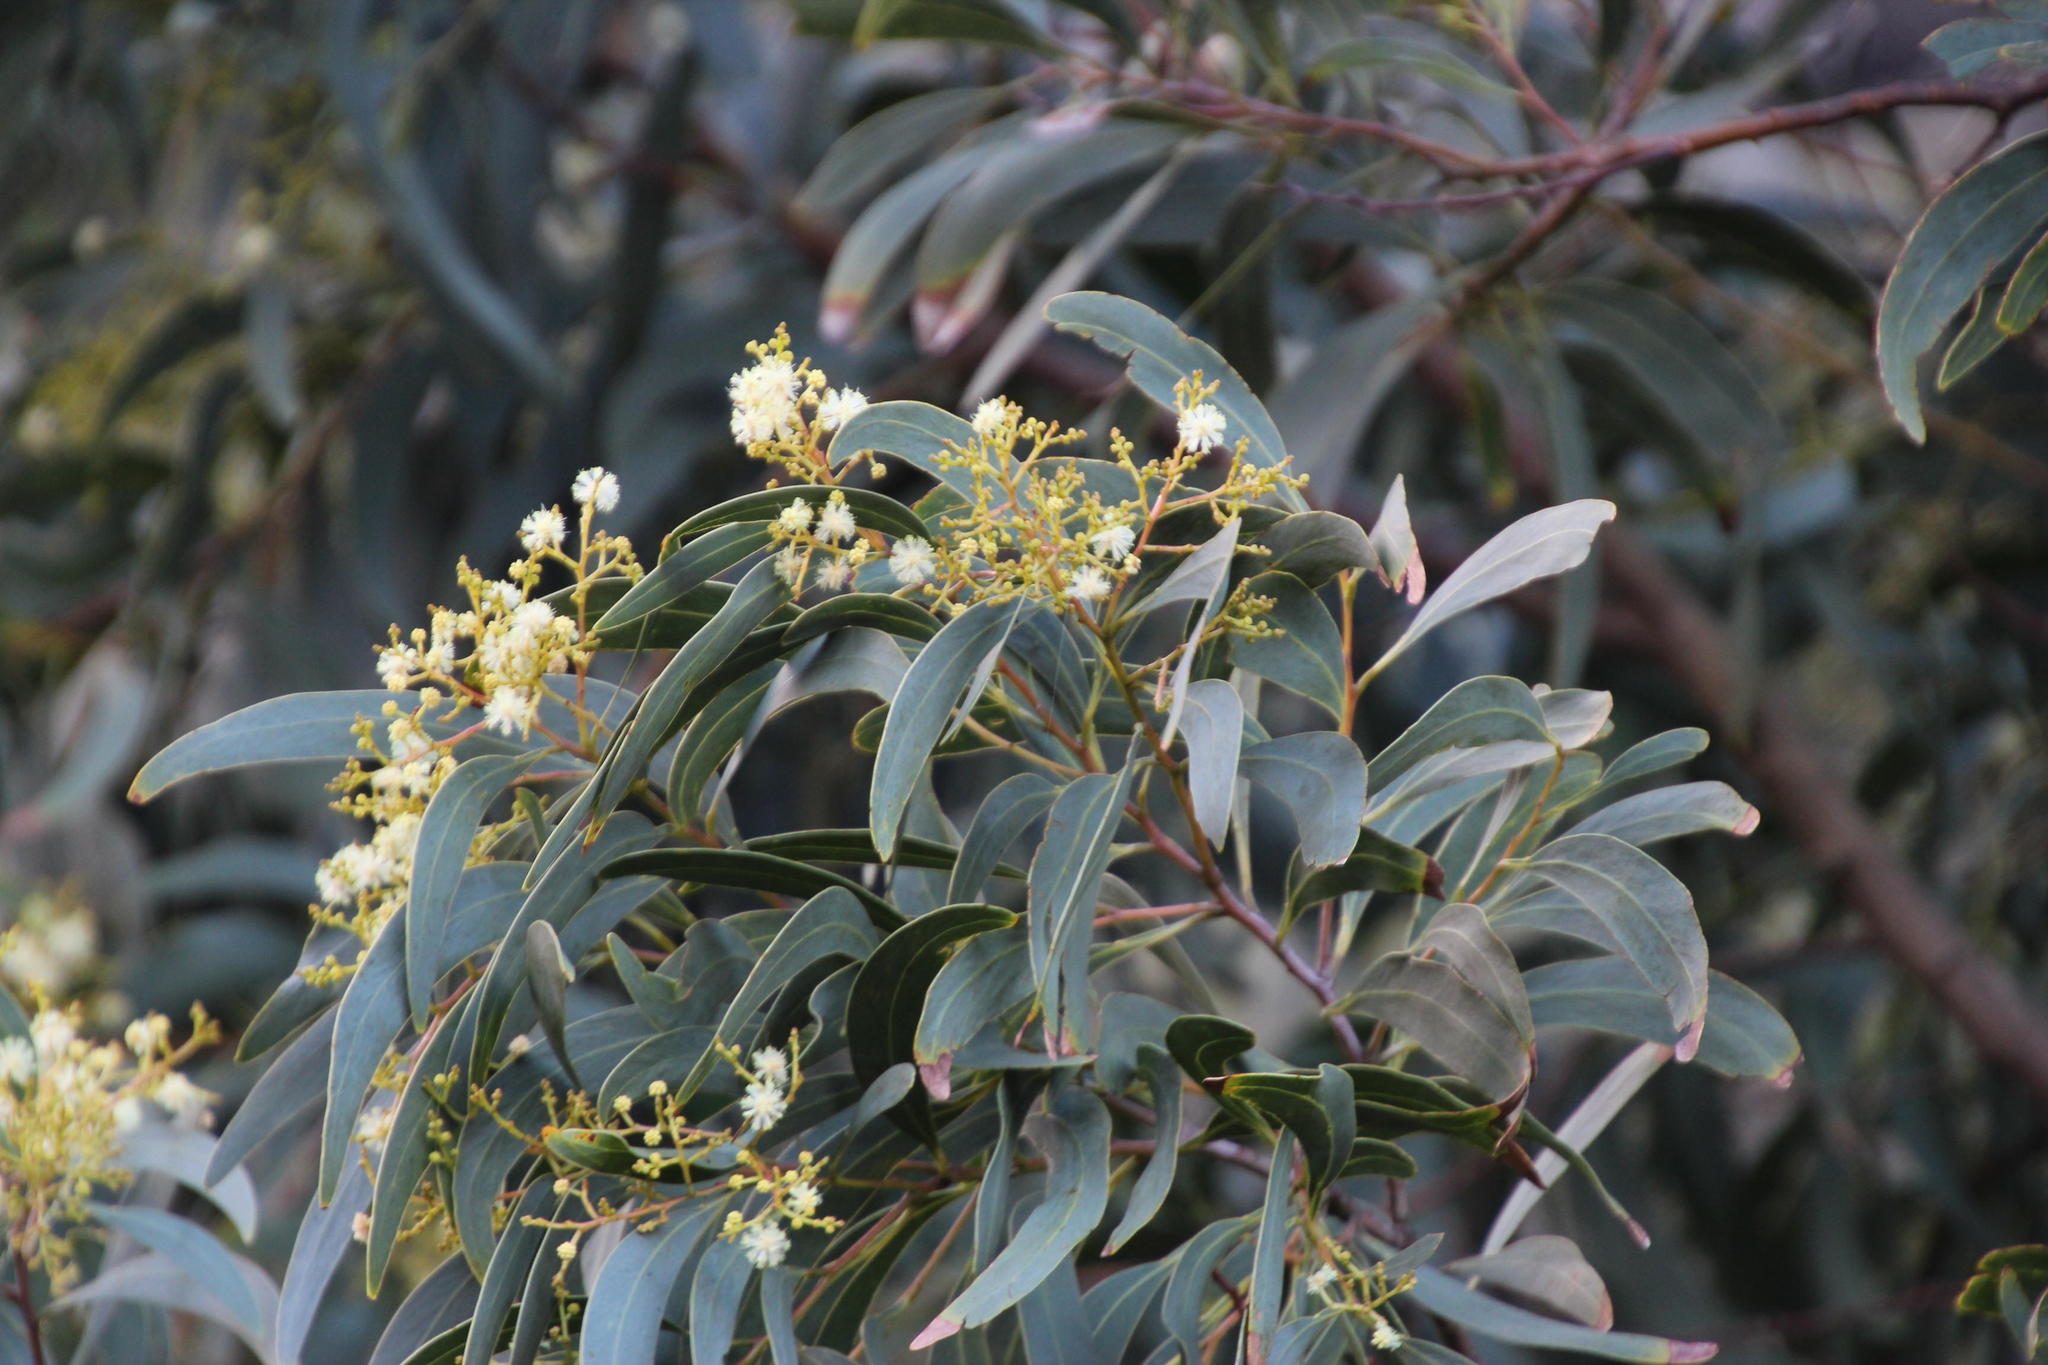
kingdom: Plantae
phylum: Tracheophyta
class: Magnoliopsida
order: Fabales
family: Fabaceae
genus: Acacia
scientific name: Acacia falciformis
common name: Tanning wattle
